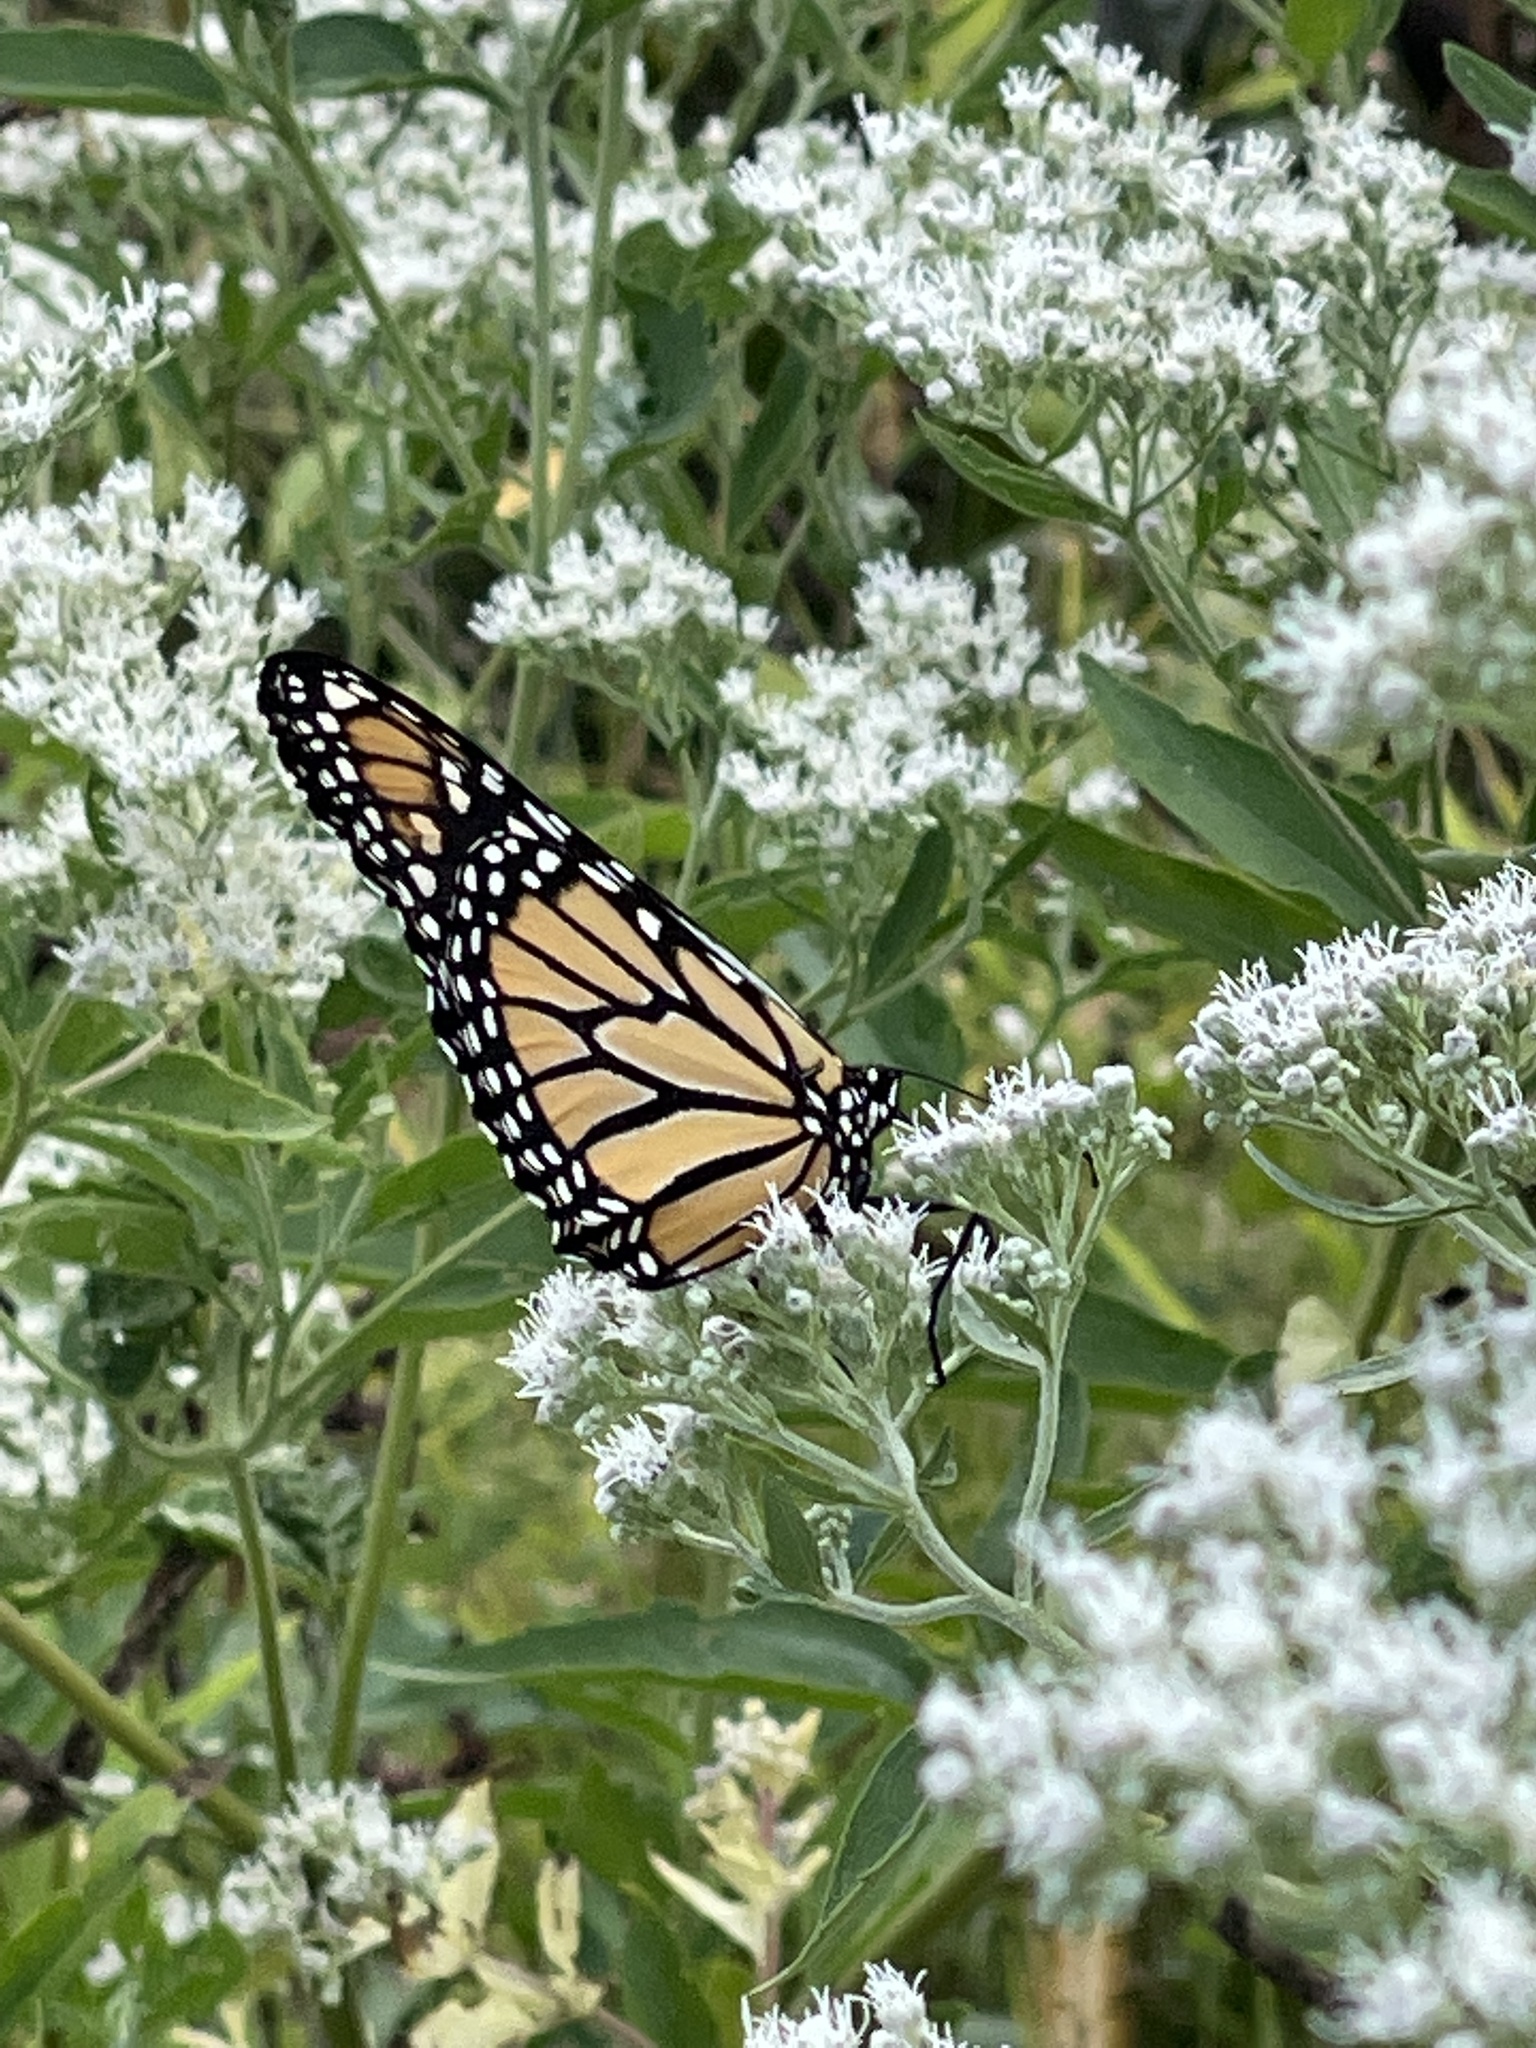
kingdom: Animalia
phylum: Arthropoda
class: Insecta
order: Lepidoptera
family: Nymphalidae
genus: Danaus
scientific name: Danaus plexippus
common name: Monarch
